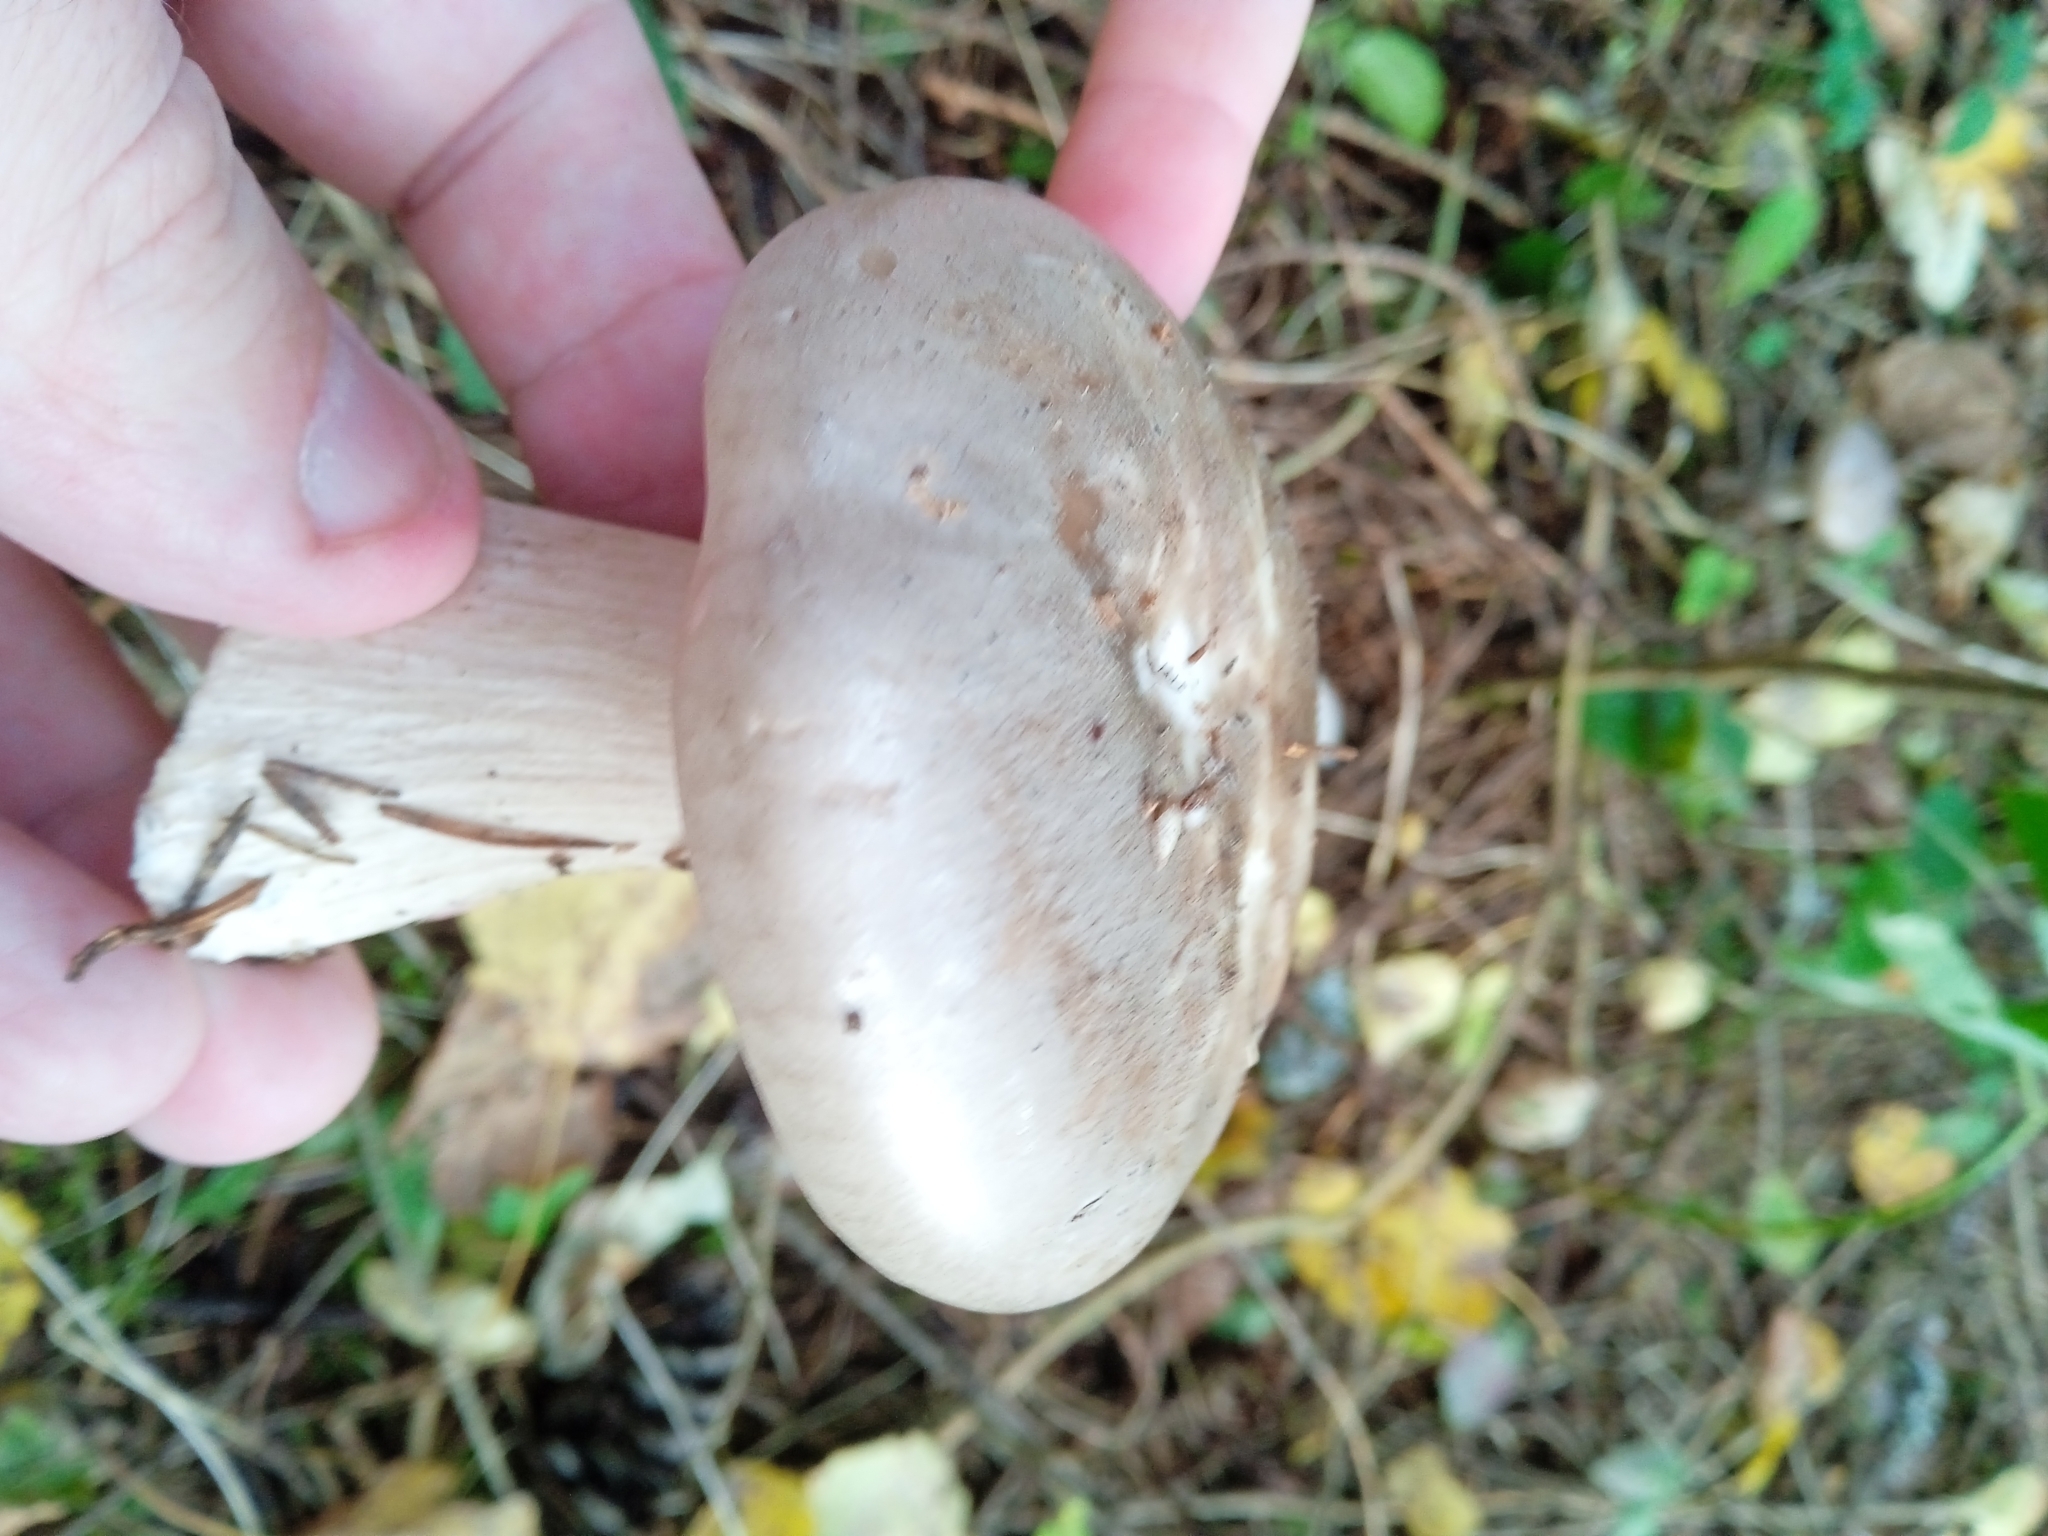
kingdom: Fungi
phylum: Basidiomycota
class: Agaricomycetes
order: Agaricales
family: Tricholomataceae
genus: Clitocybe
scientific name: Clitocybe nebularis
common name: Clouded agaric
